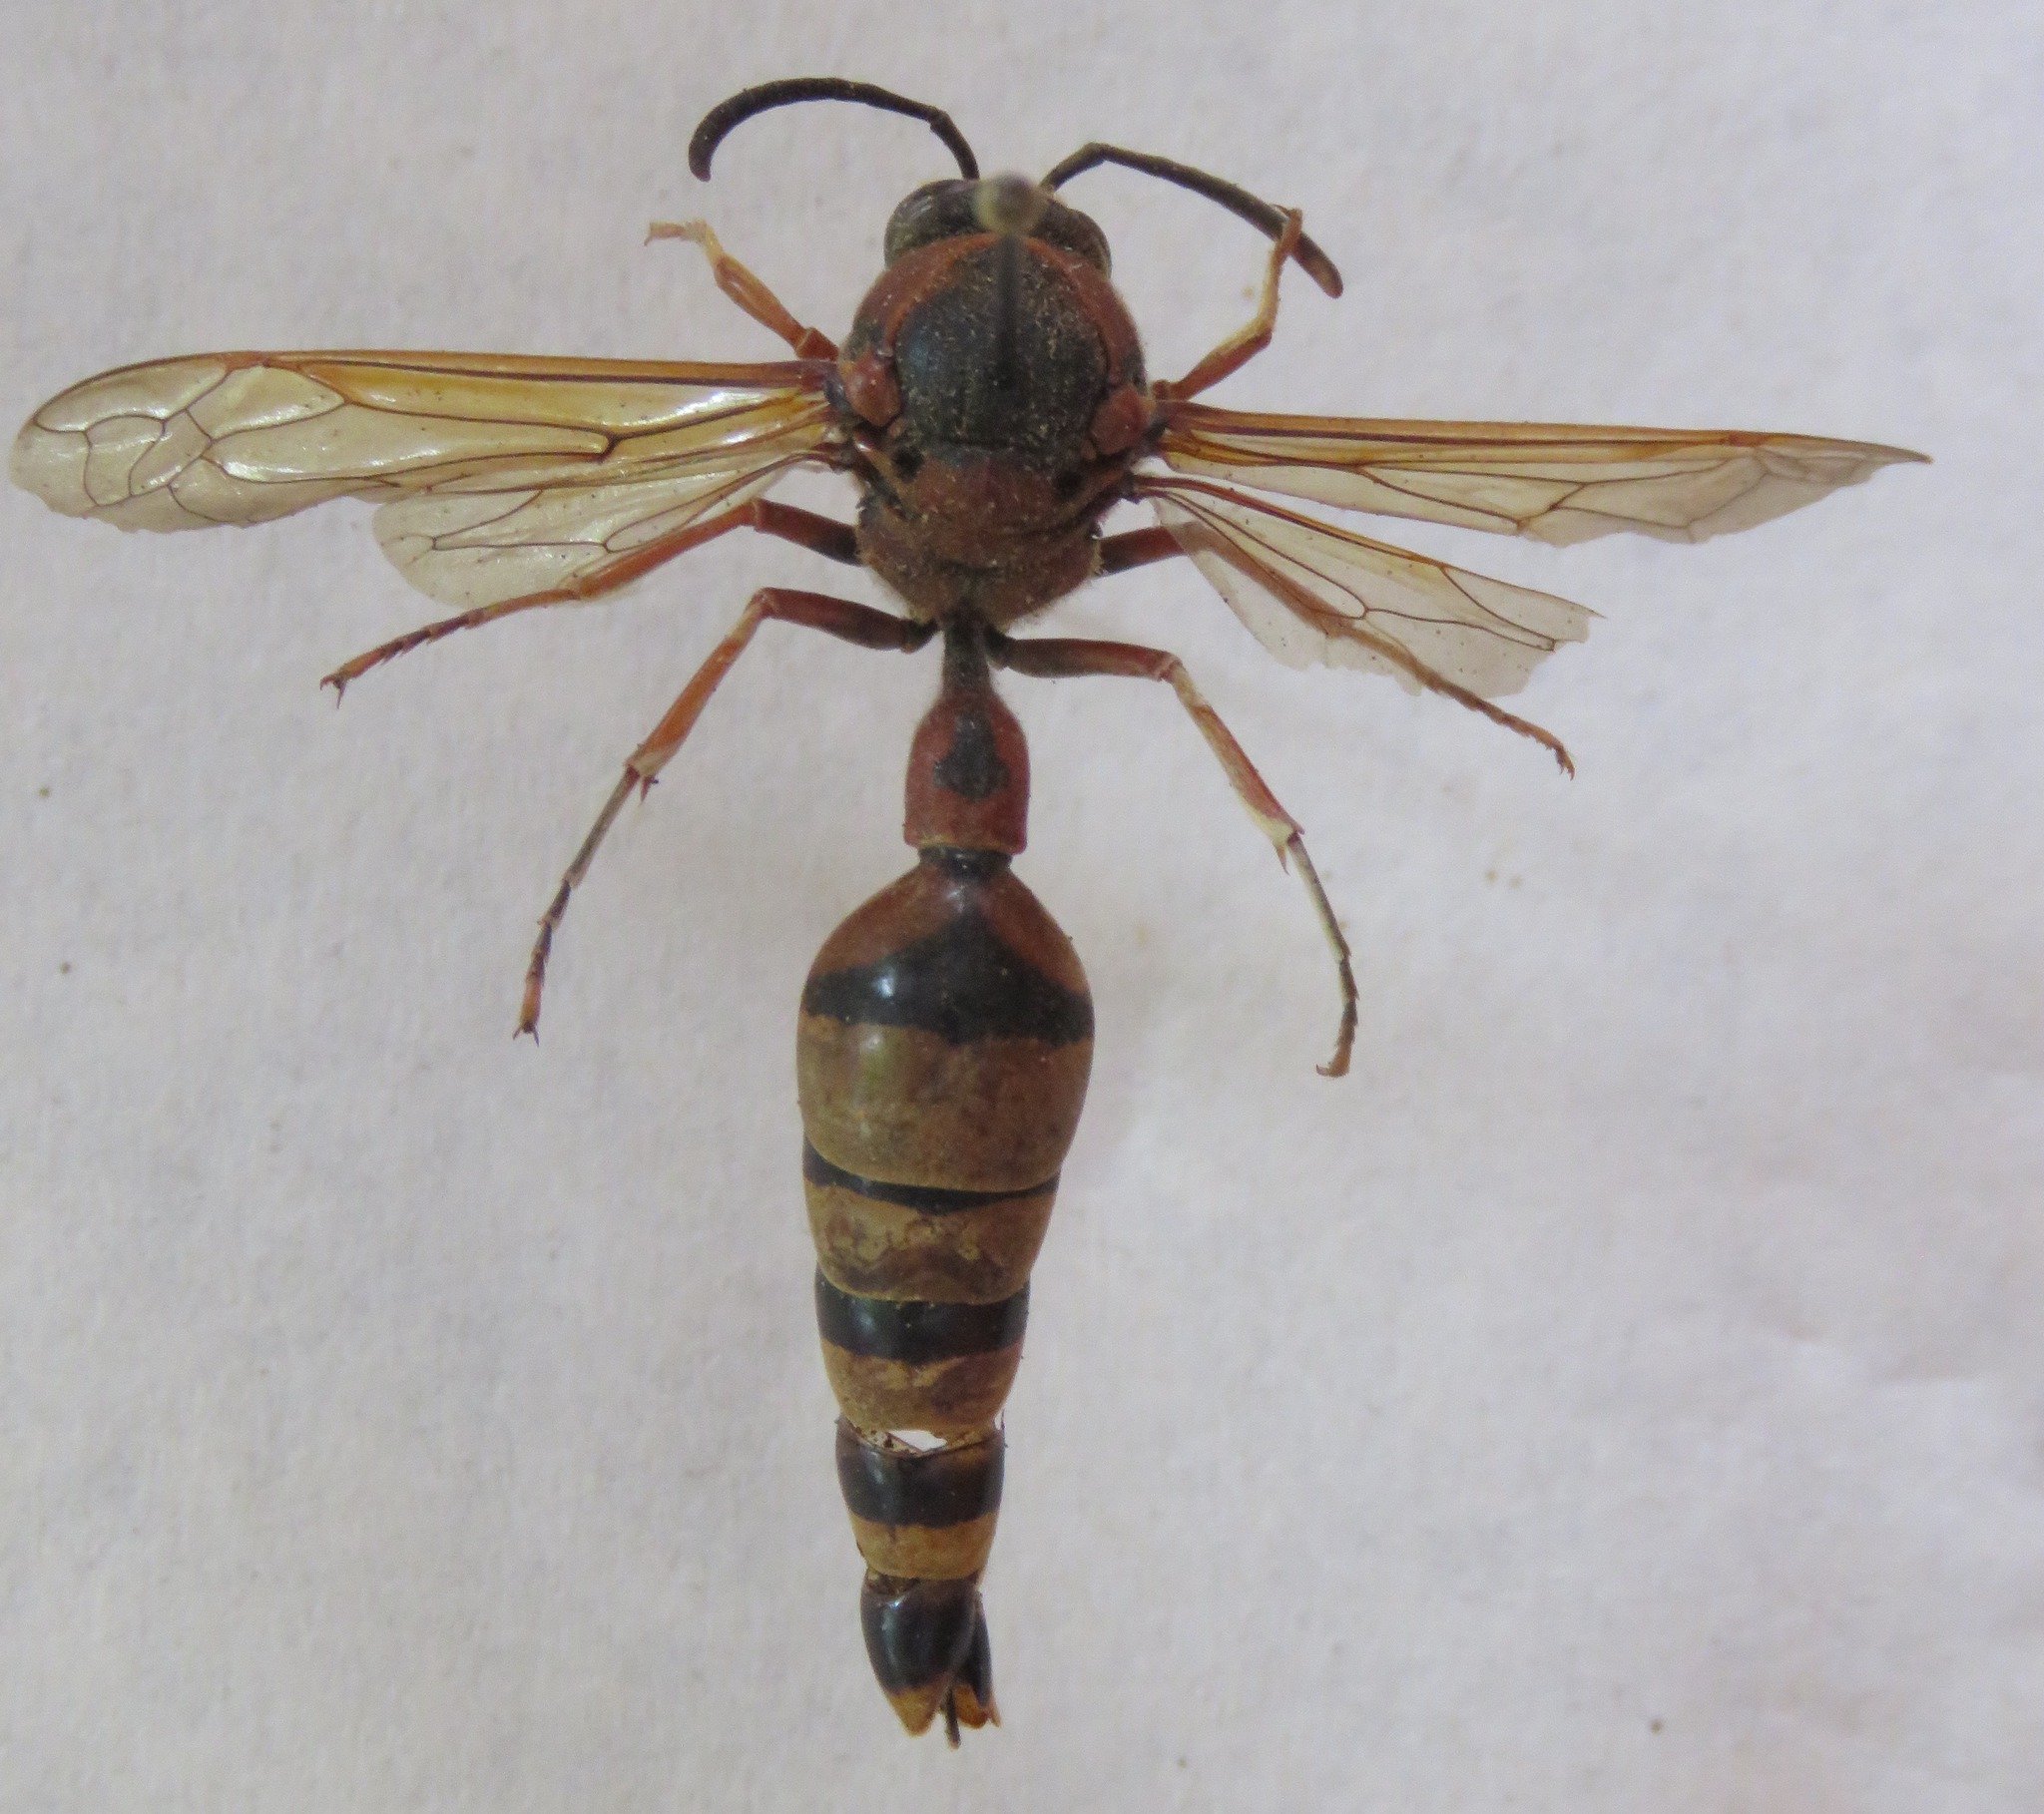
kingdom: Animalia
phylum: Arthropoda
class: Insecta
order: Hymenoptera
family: Eumenidae
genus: Delta
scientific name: Delta unguiculatum
